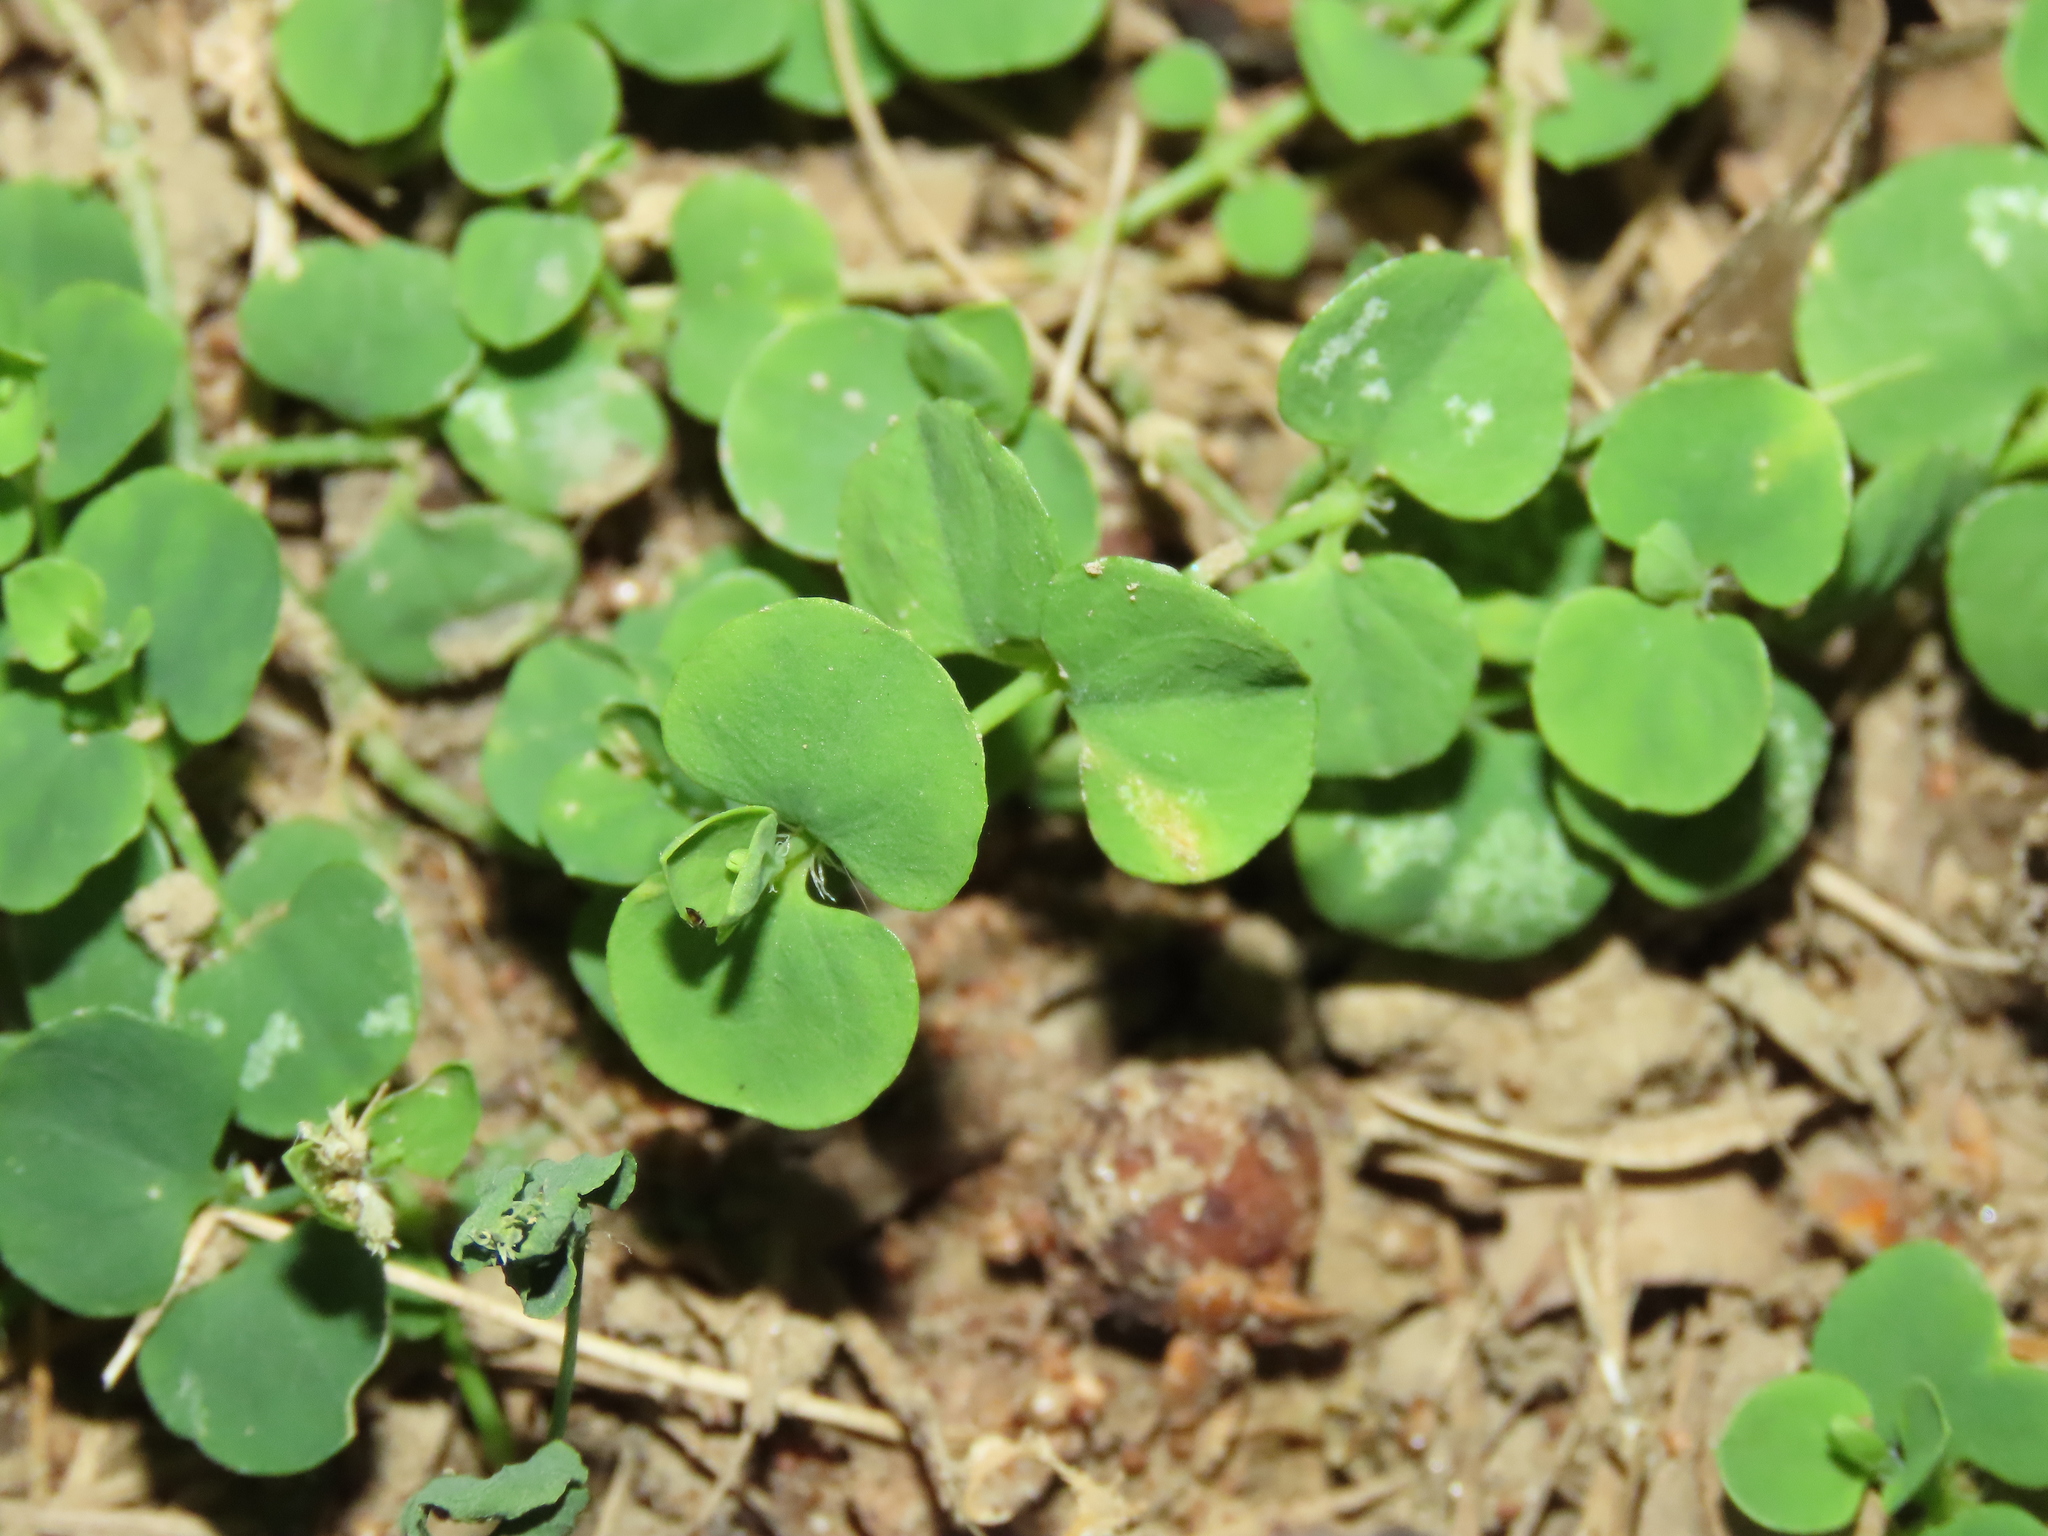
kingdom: Plantae
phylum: Tracheophyta
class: Magnoliopsida
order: Caryophyllales
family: Caryophyllaceae
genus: Drymaria
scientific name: Drymaria cordata
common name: Whitesnow
